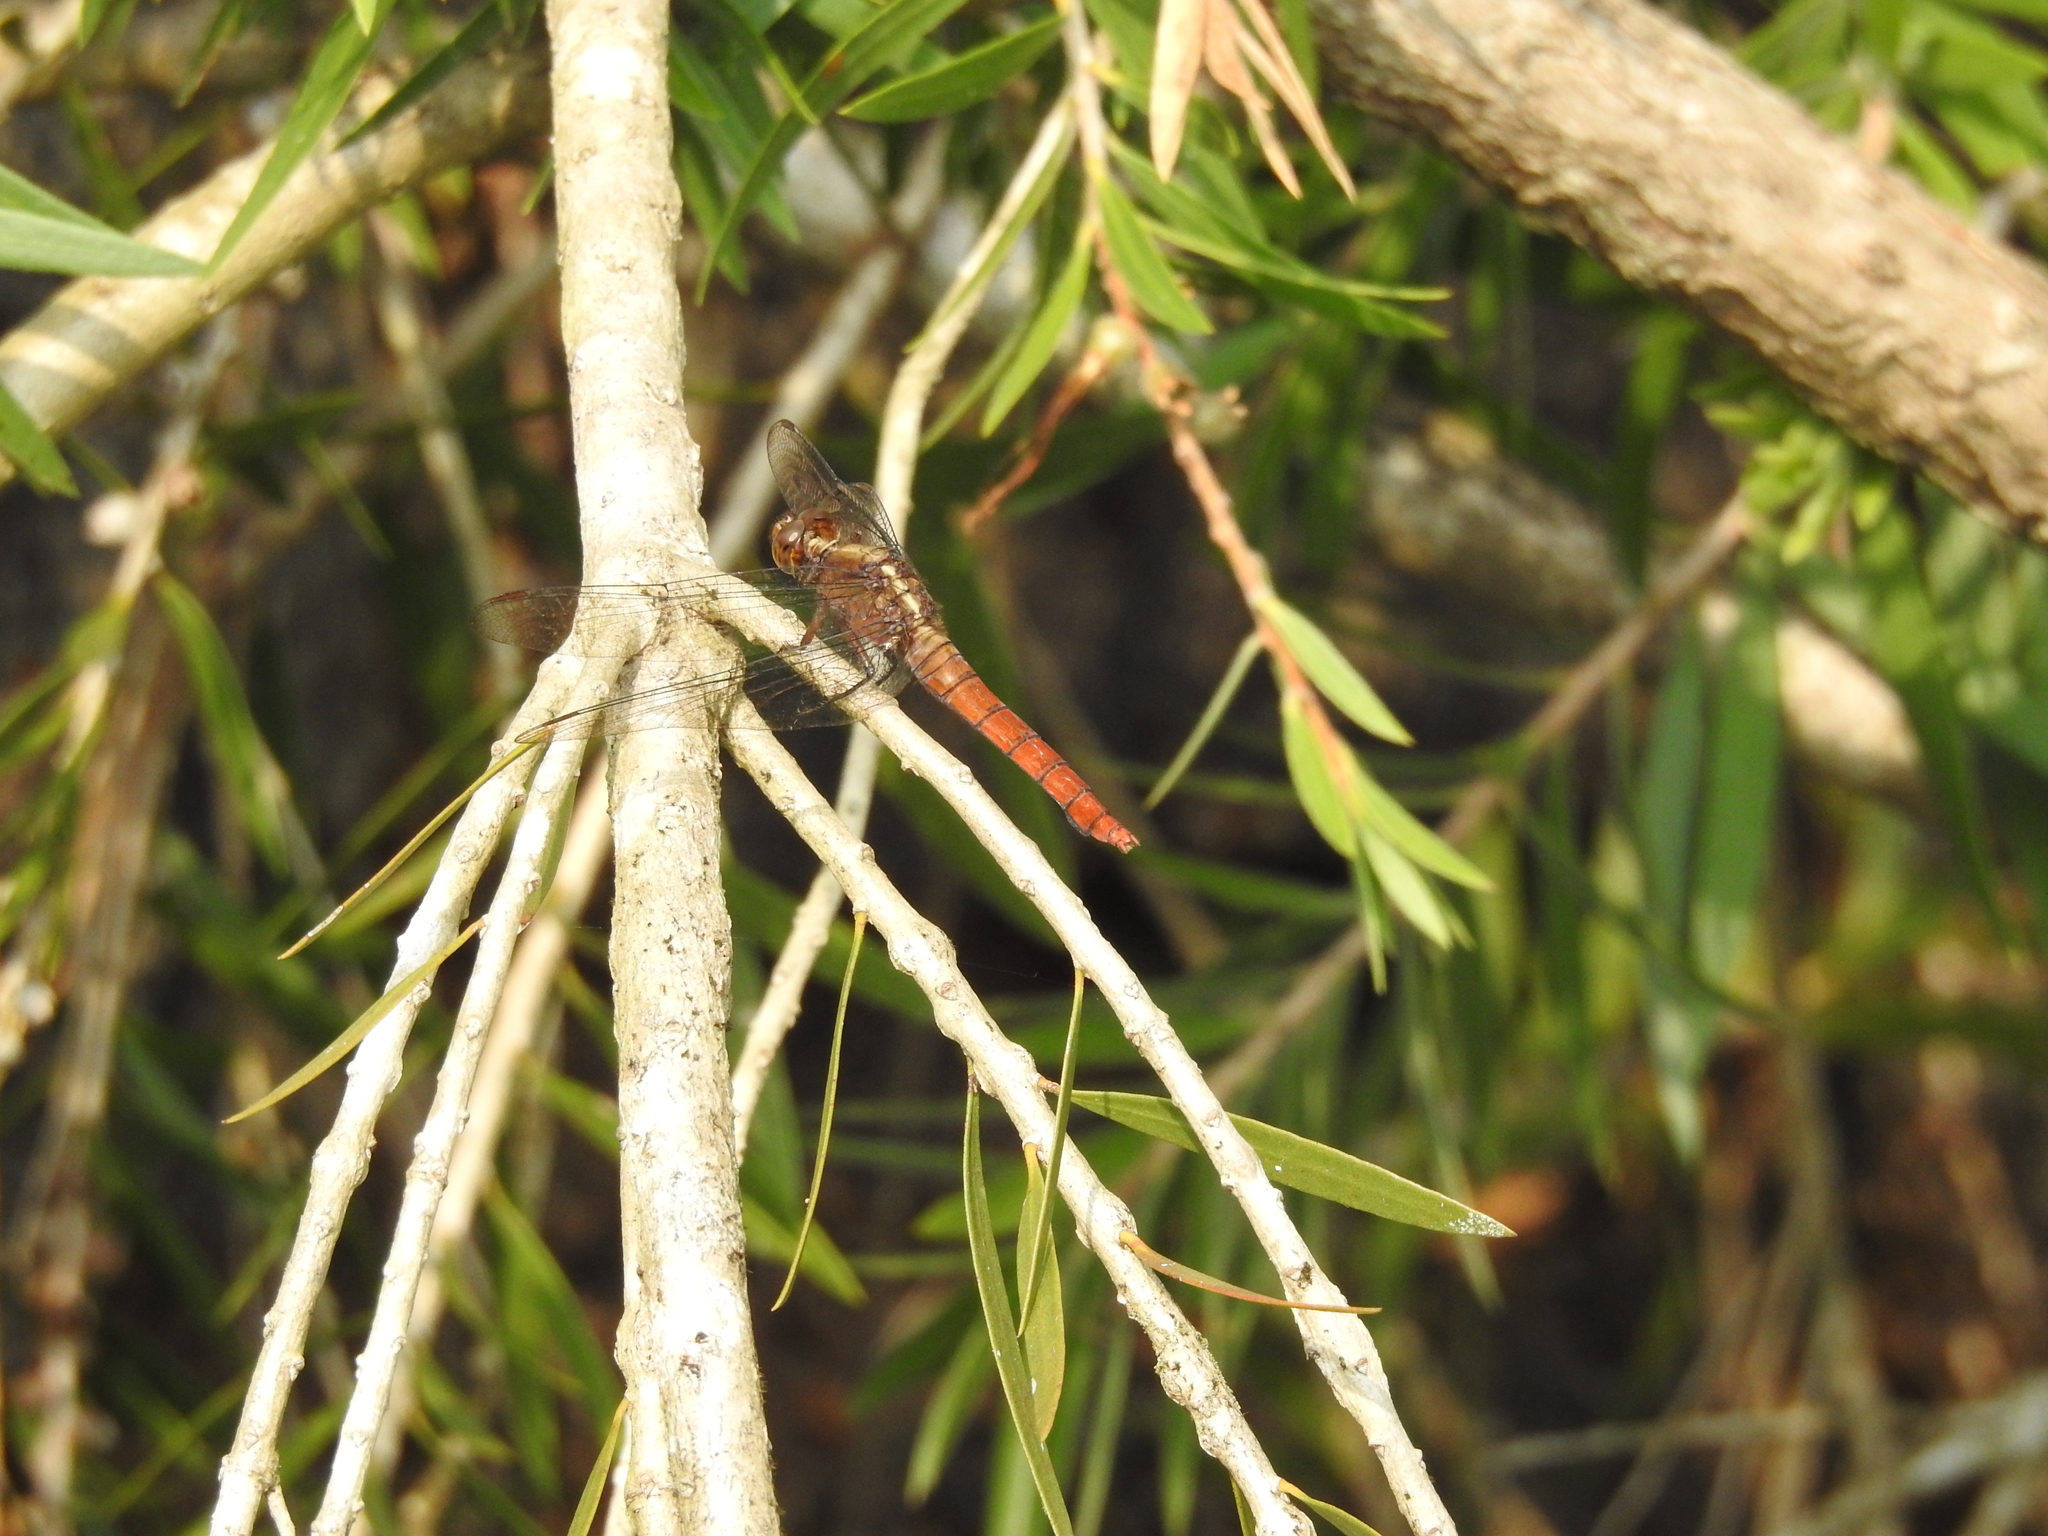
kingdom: Animalia
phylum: Arthropoda
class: Insecta
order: Odonata
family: Libellulidae
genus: Orthetrum
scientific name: Orthetrum chrysis
